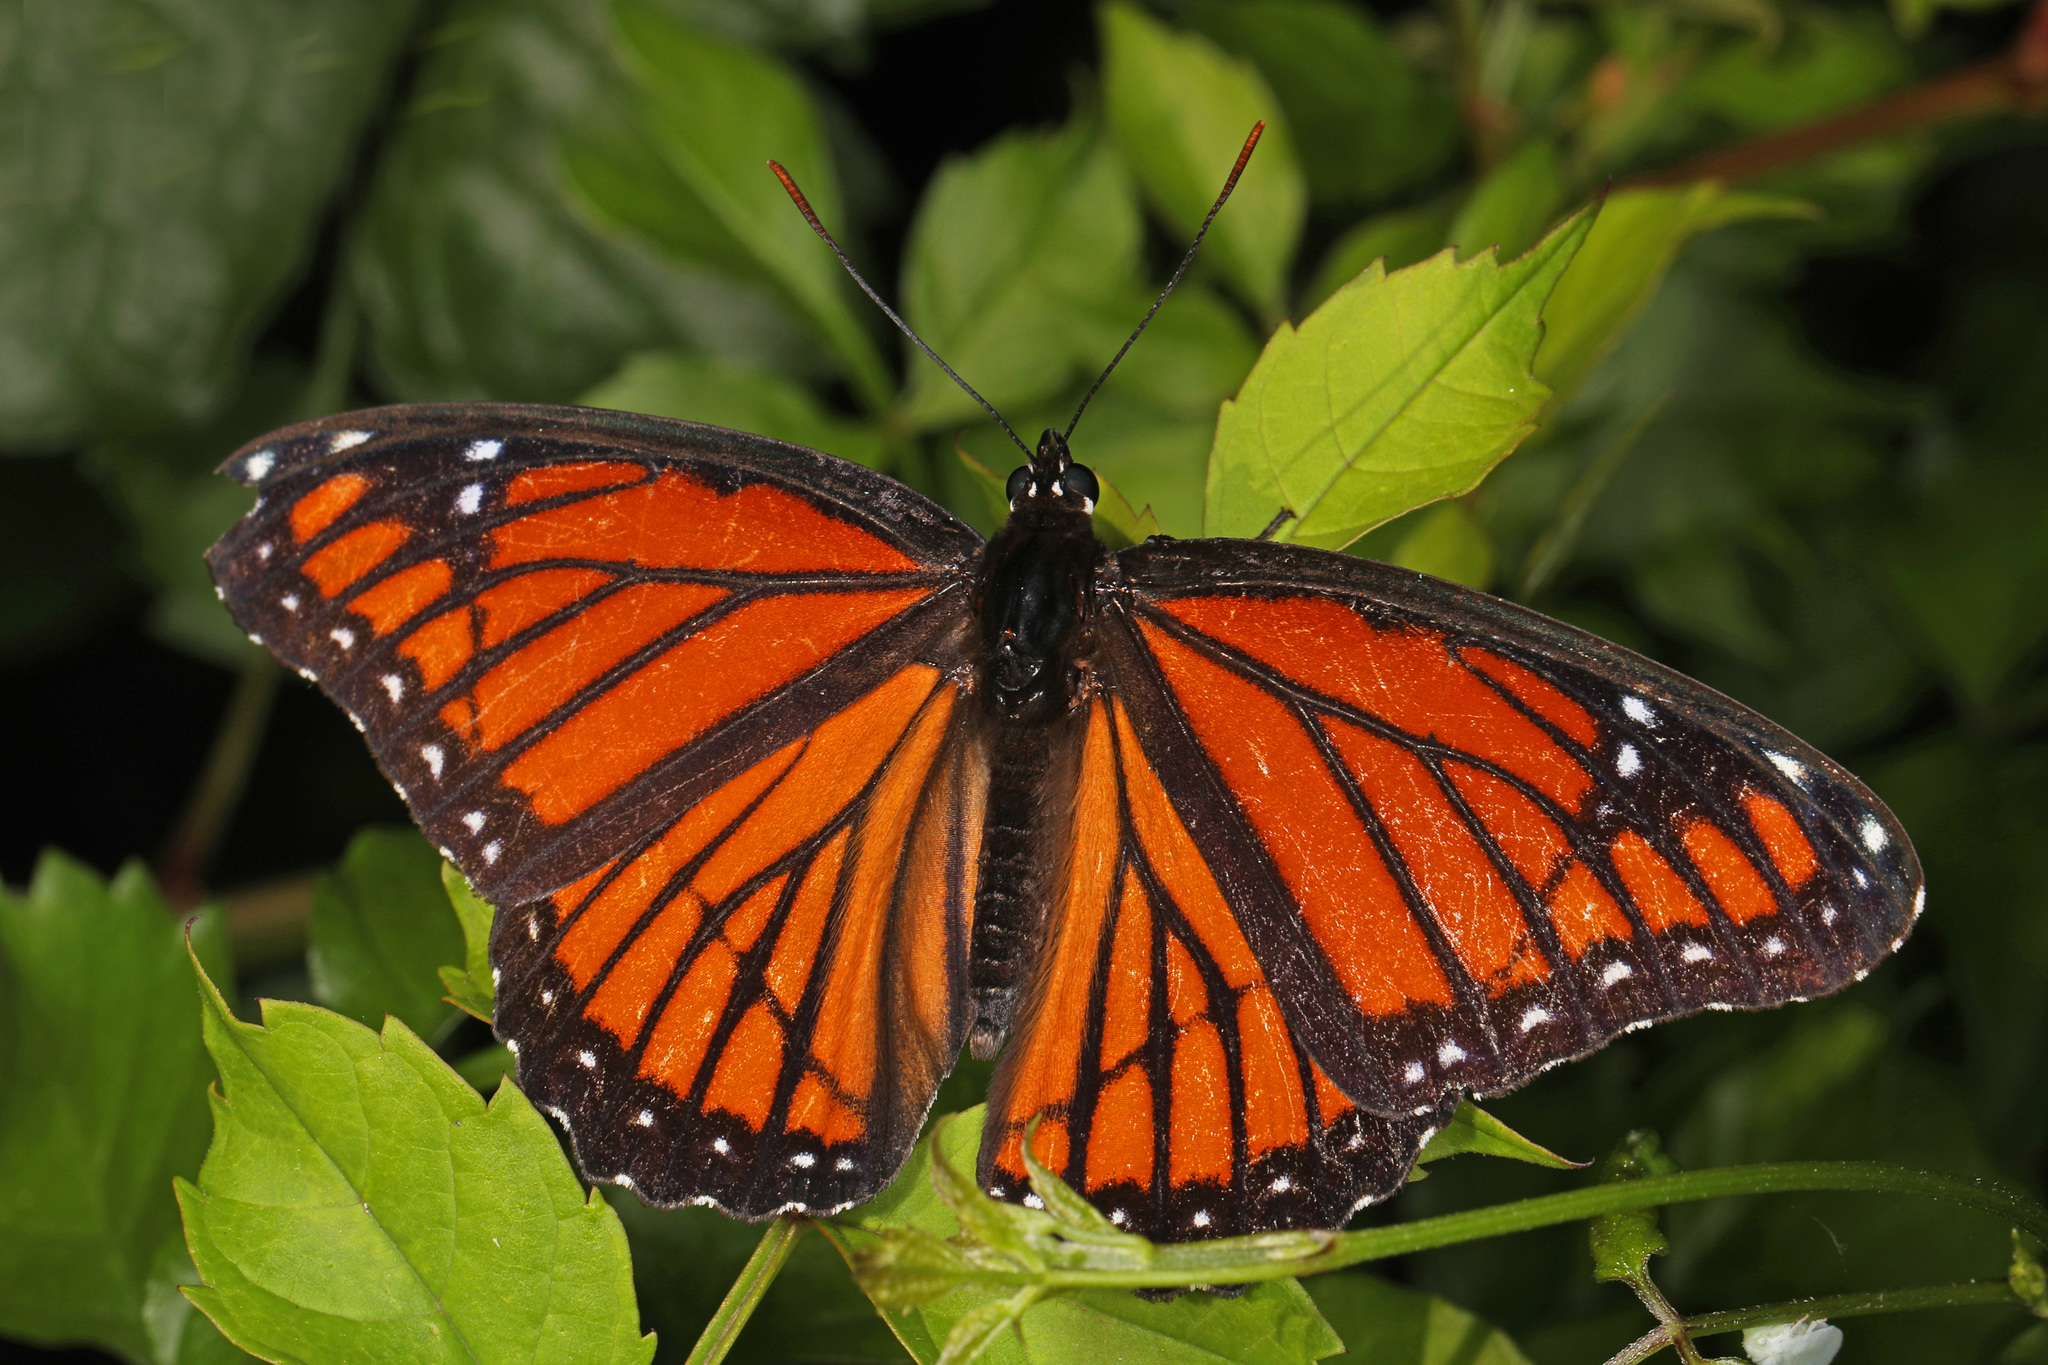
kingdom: Animalia
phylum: Arthropoda
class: Insecta
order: Lepidoptera
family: Nymphalidae
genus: Limenitis
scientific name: Limenitis archippus
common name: Viceroy
